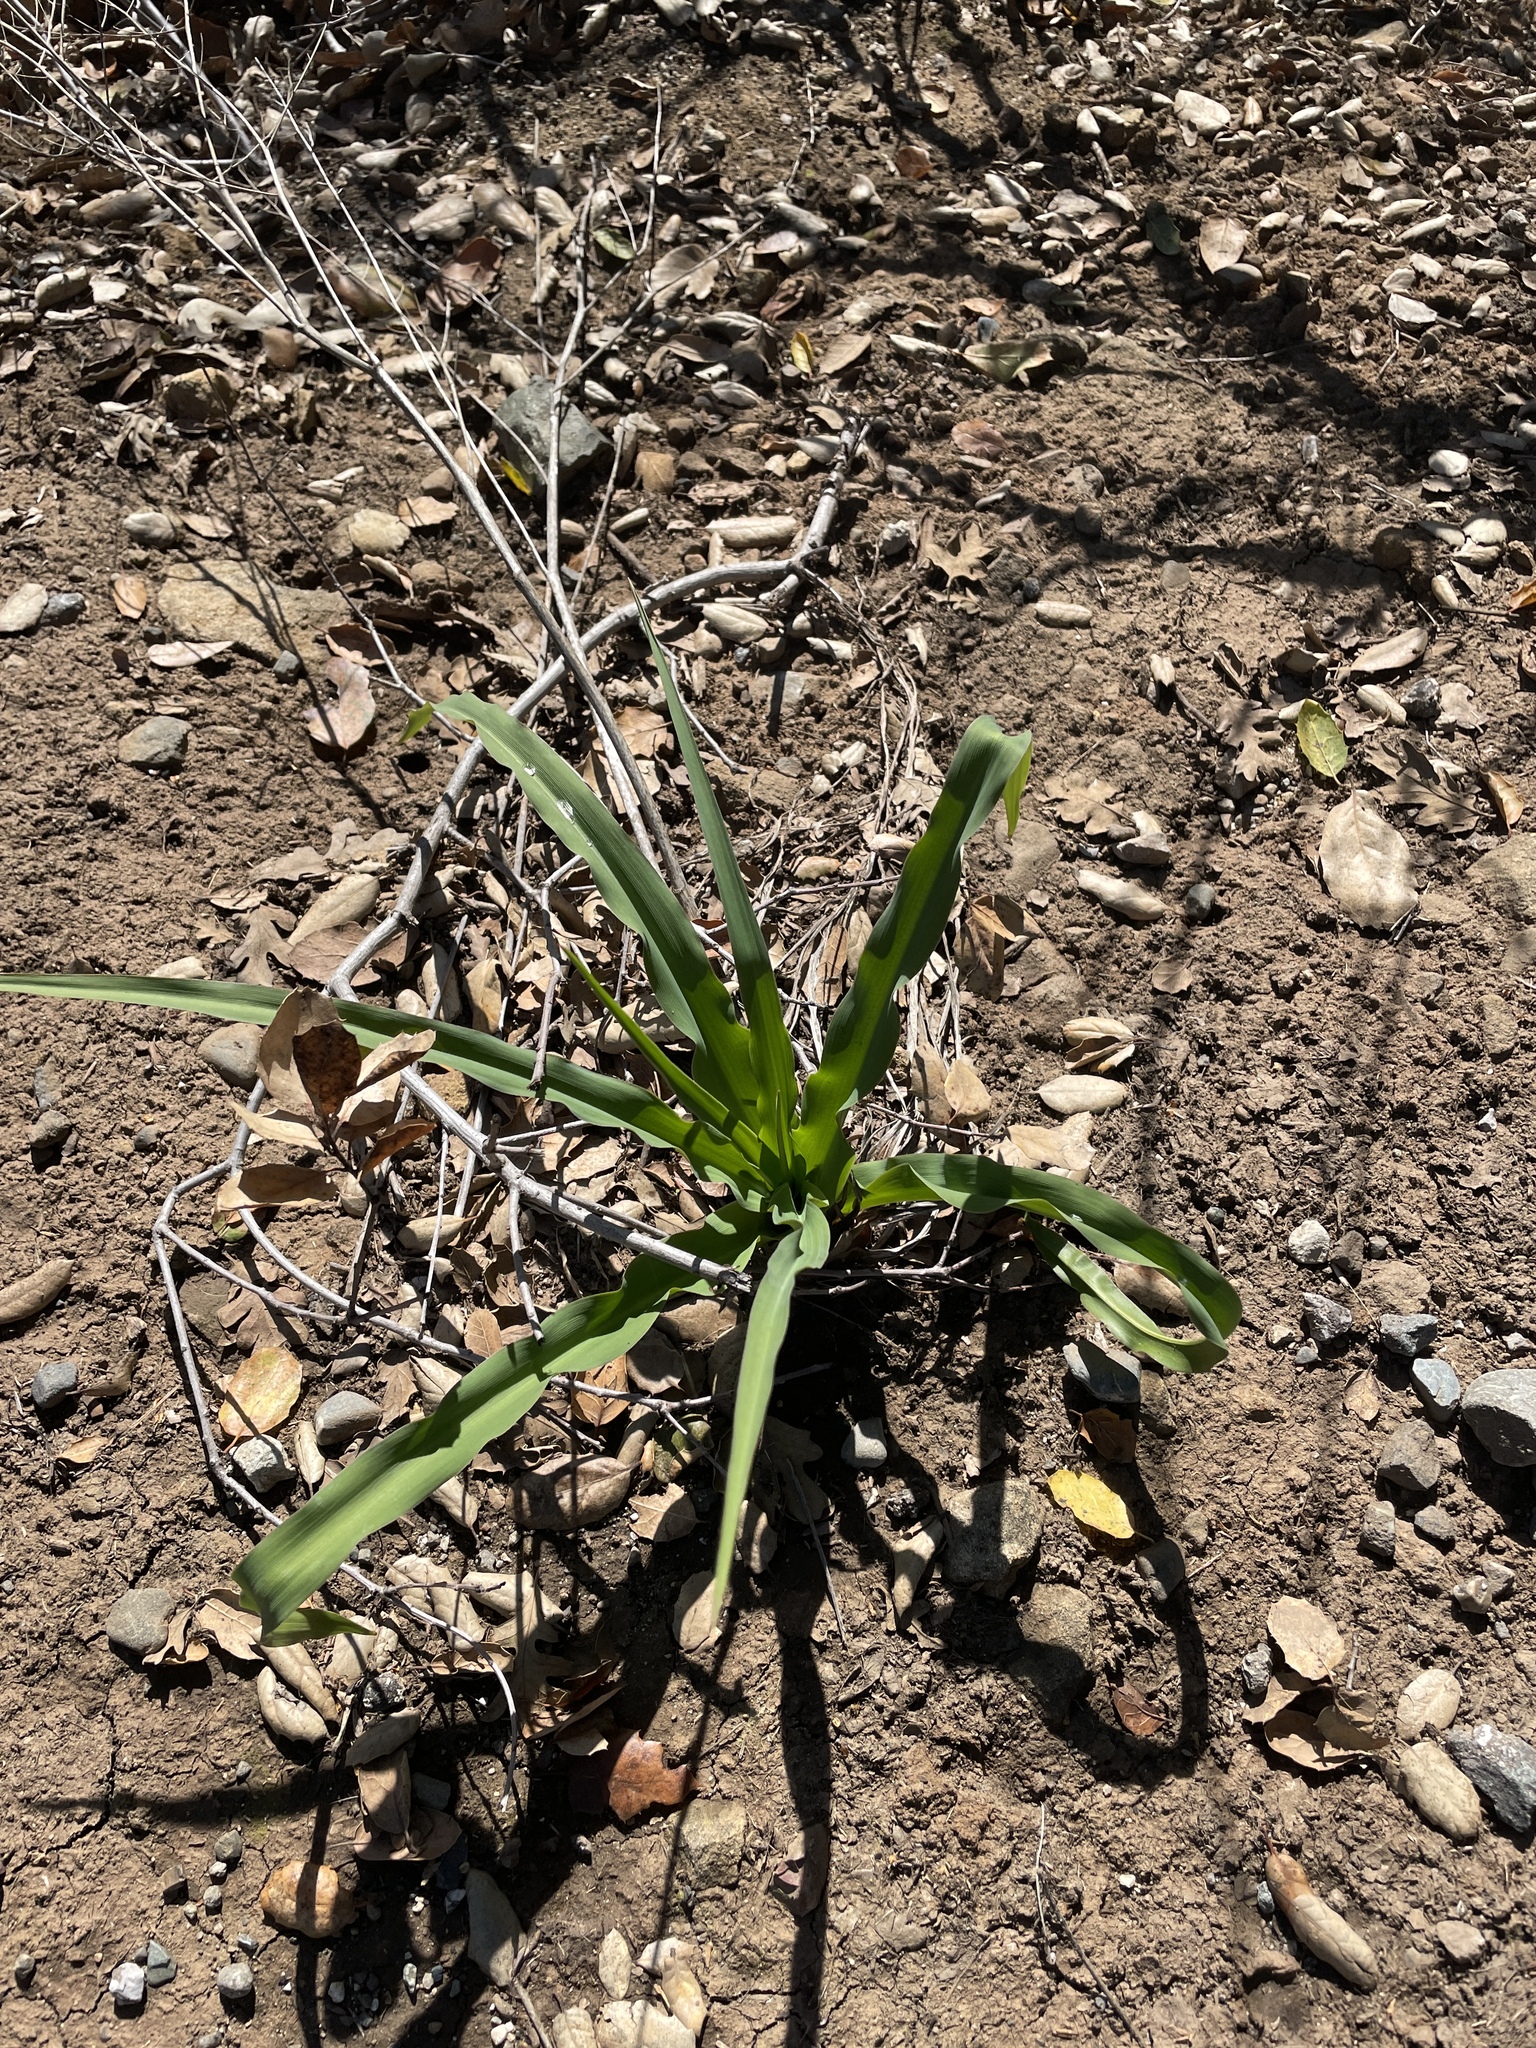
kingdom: Plantae
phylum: Tracheophyta
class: Liliopsida
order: Asparagales
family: Asparagaceae
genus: Chlorogalum
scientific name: Chlorogalum pomeridianum
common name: Amole
